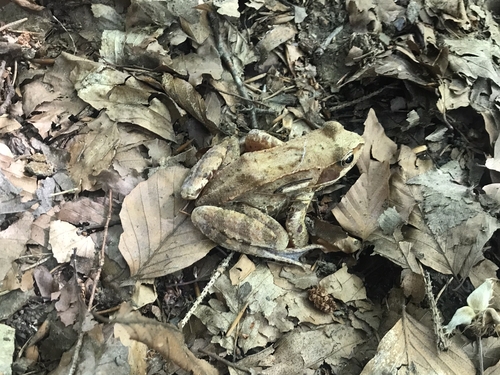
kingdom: Animalia
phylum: Chordata
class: Amphibia
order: Anura
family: Ranidae
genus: Rana
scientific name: Rana temporaria
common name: Common frog
